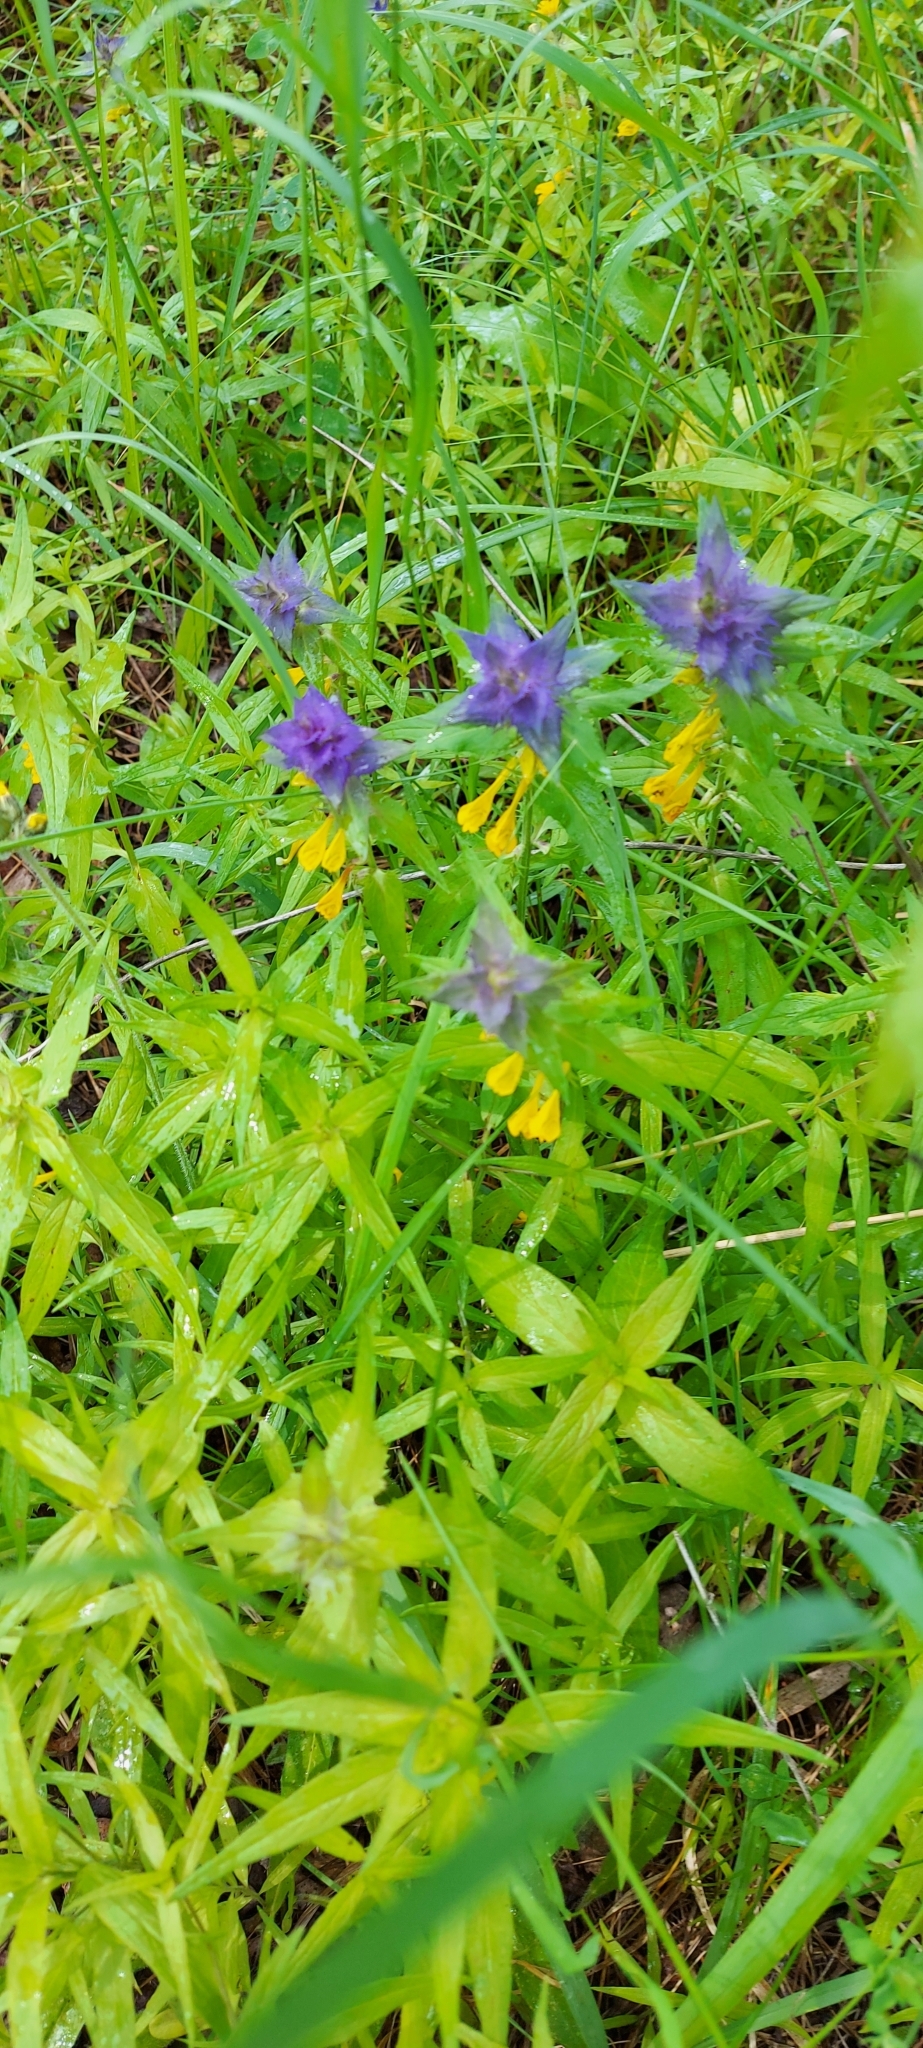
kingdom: Plantae
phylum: Tracheophyta
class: Magnoliopsida
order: Lamiales
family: Orobanchaceae
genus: Melampyrum
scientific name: Melampyrum nemorosum
